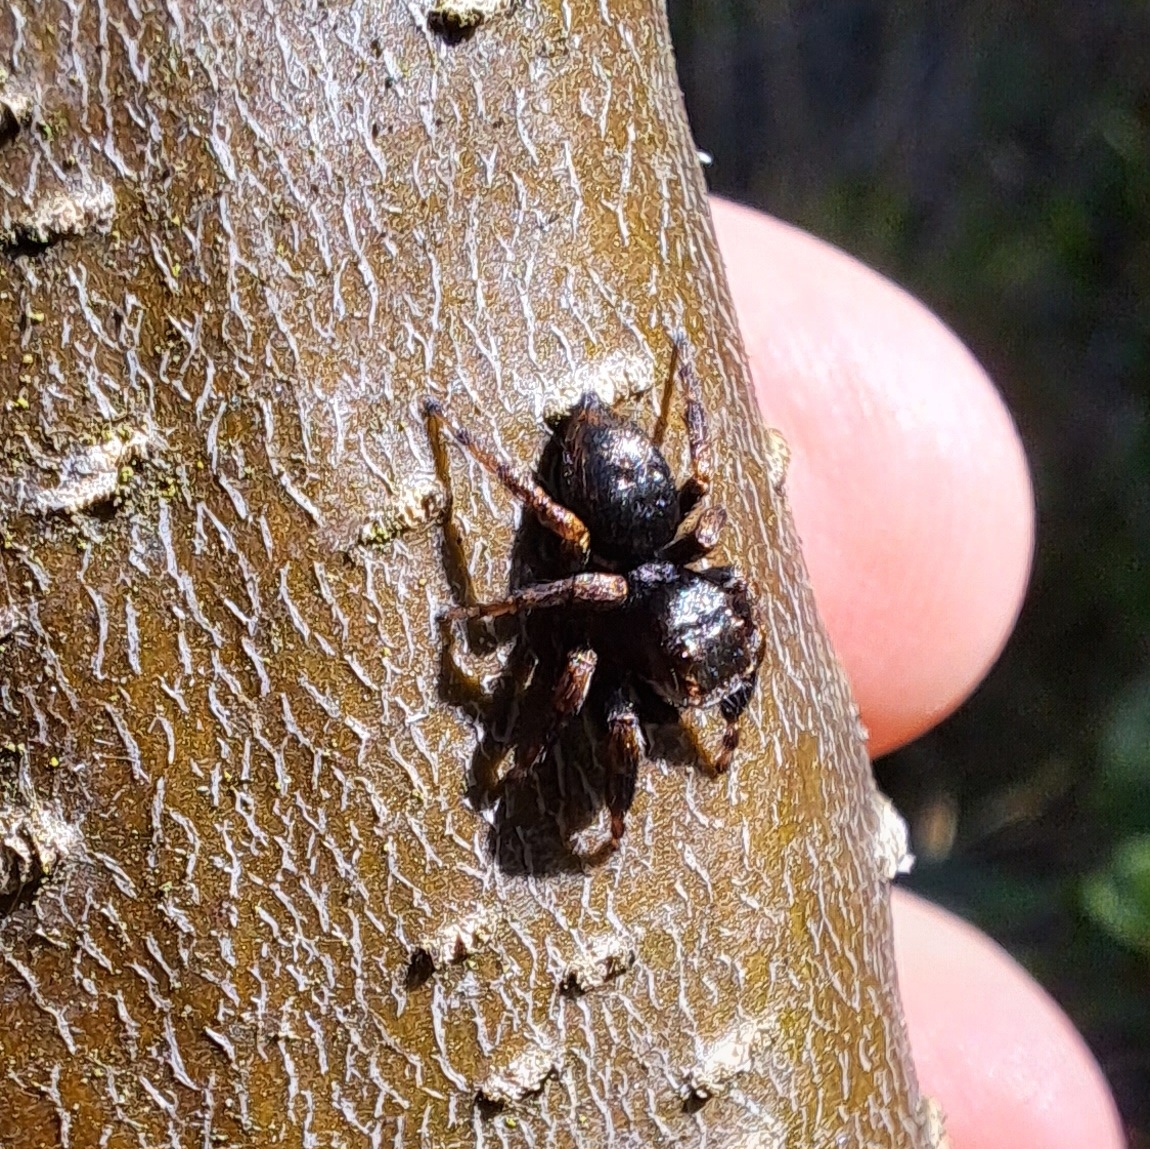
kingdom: Animalia
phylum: Arthropoda
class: Arachnida
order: Araneae
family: Salticidae
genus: Evarcha
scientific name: Evarcha arcuata
